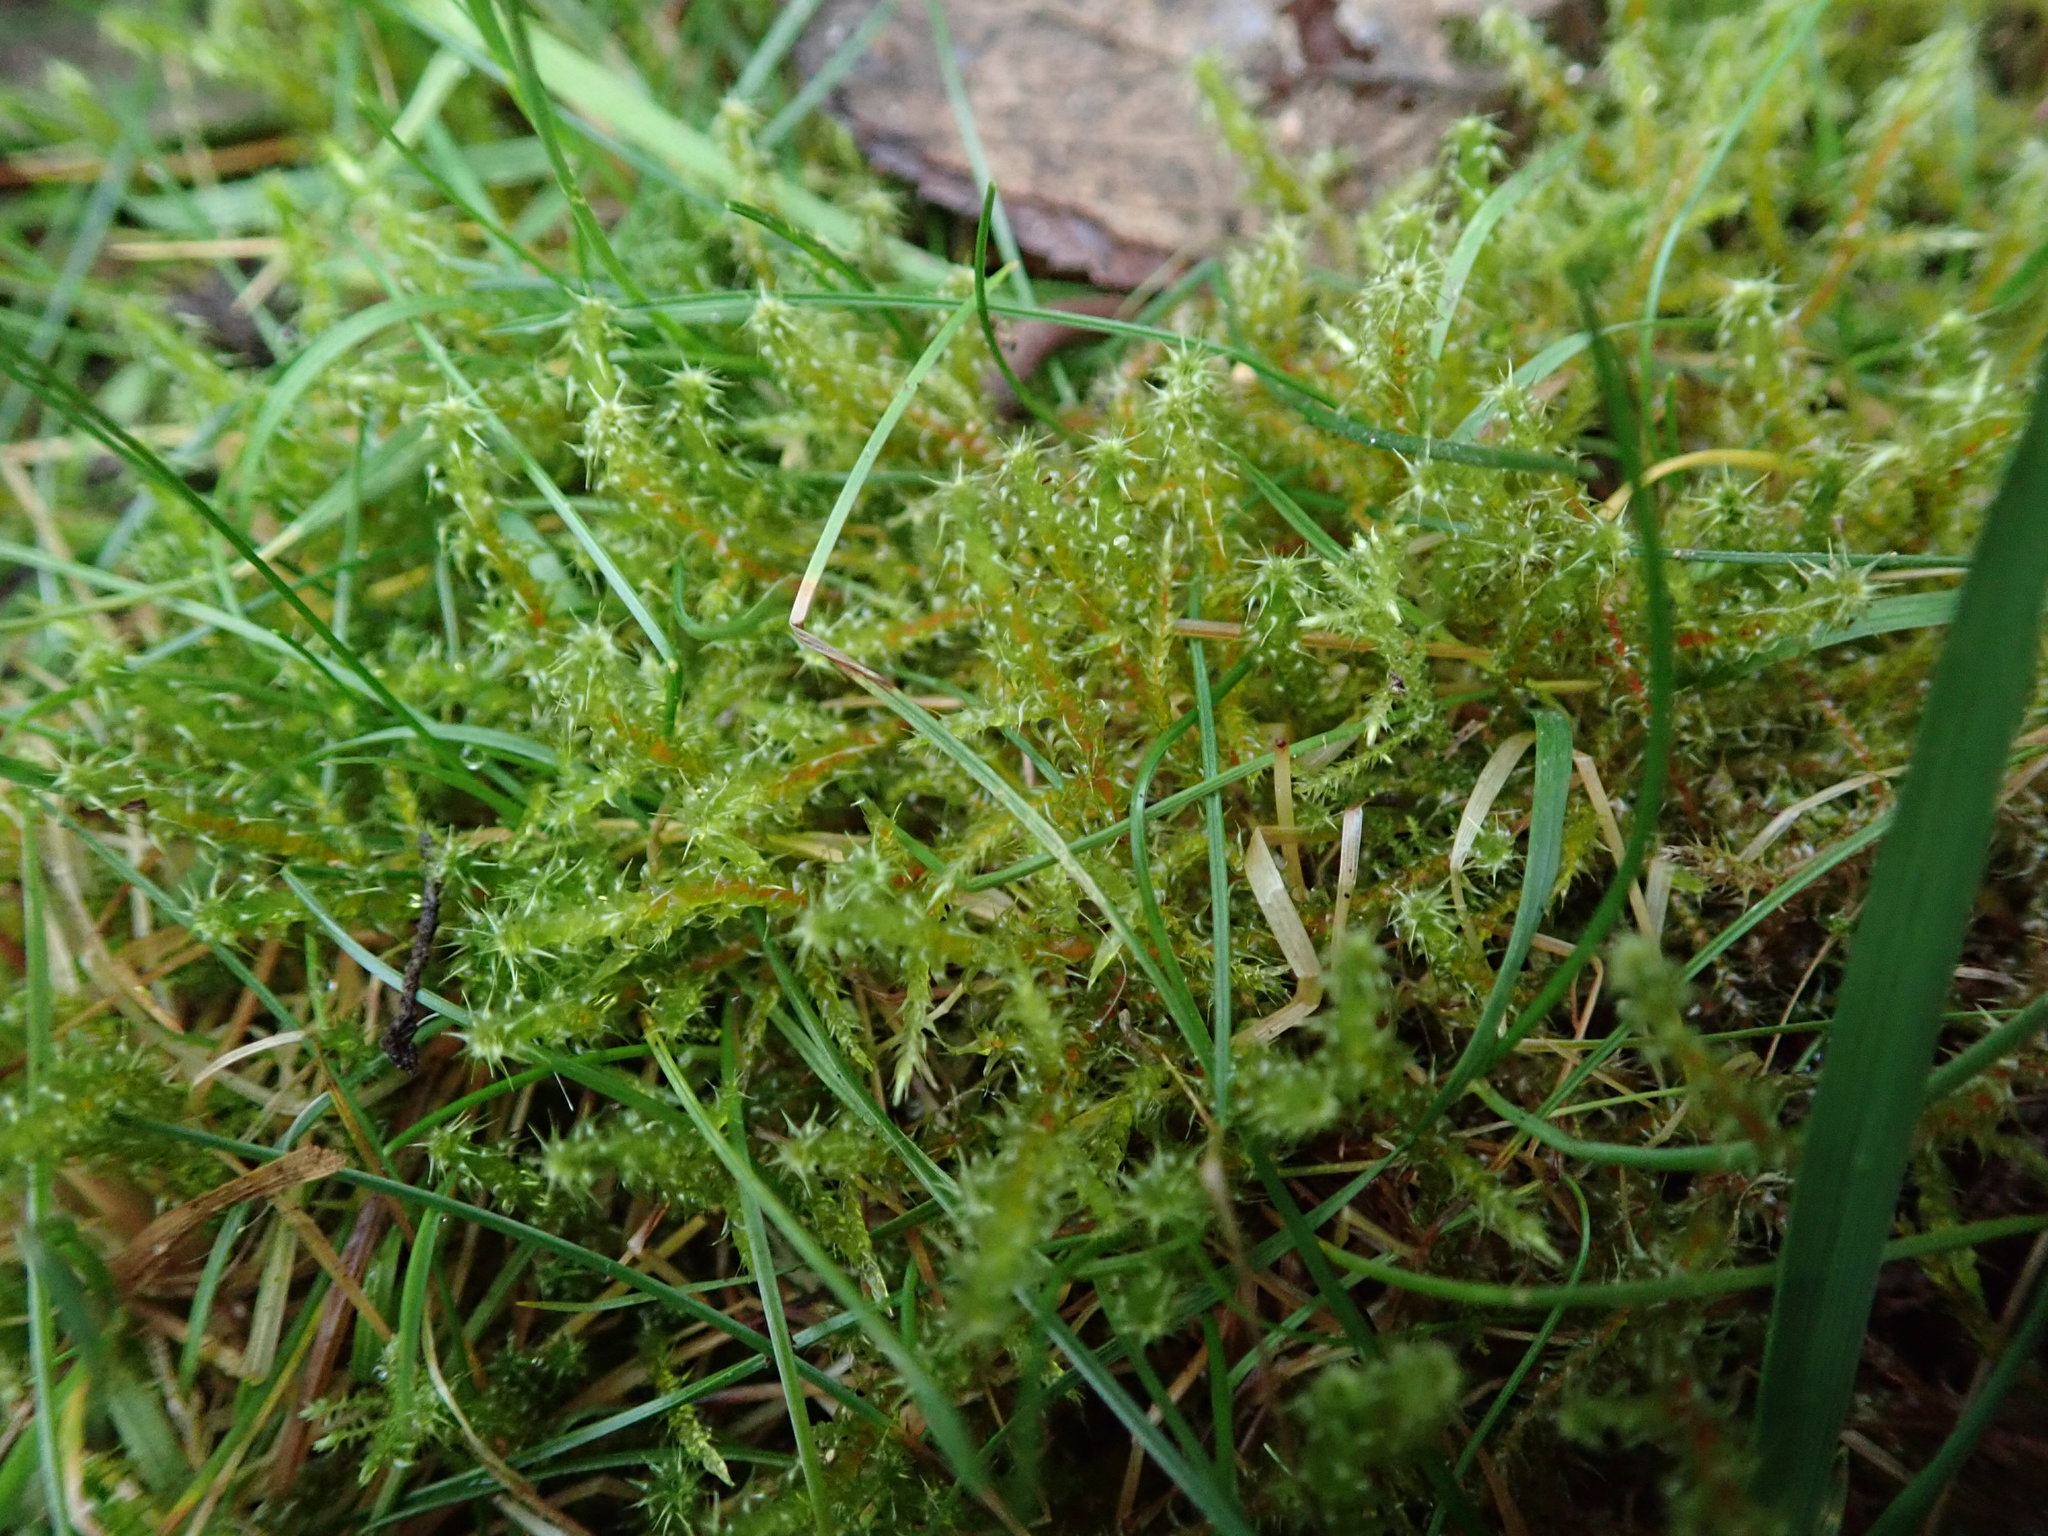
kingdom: Plantae
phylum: Bryophyta
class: Bryopsida
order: Hypnales
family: Hylocomiaceae
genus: Rhytidiadelphus
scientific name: Rhytidiadelphus squarrosus
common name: Springy turf-moss
